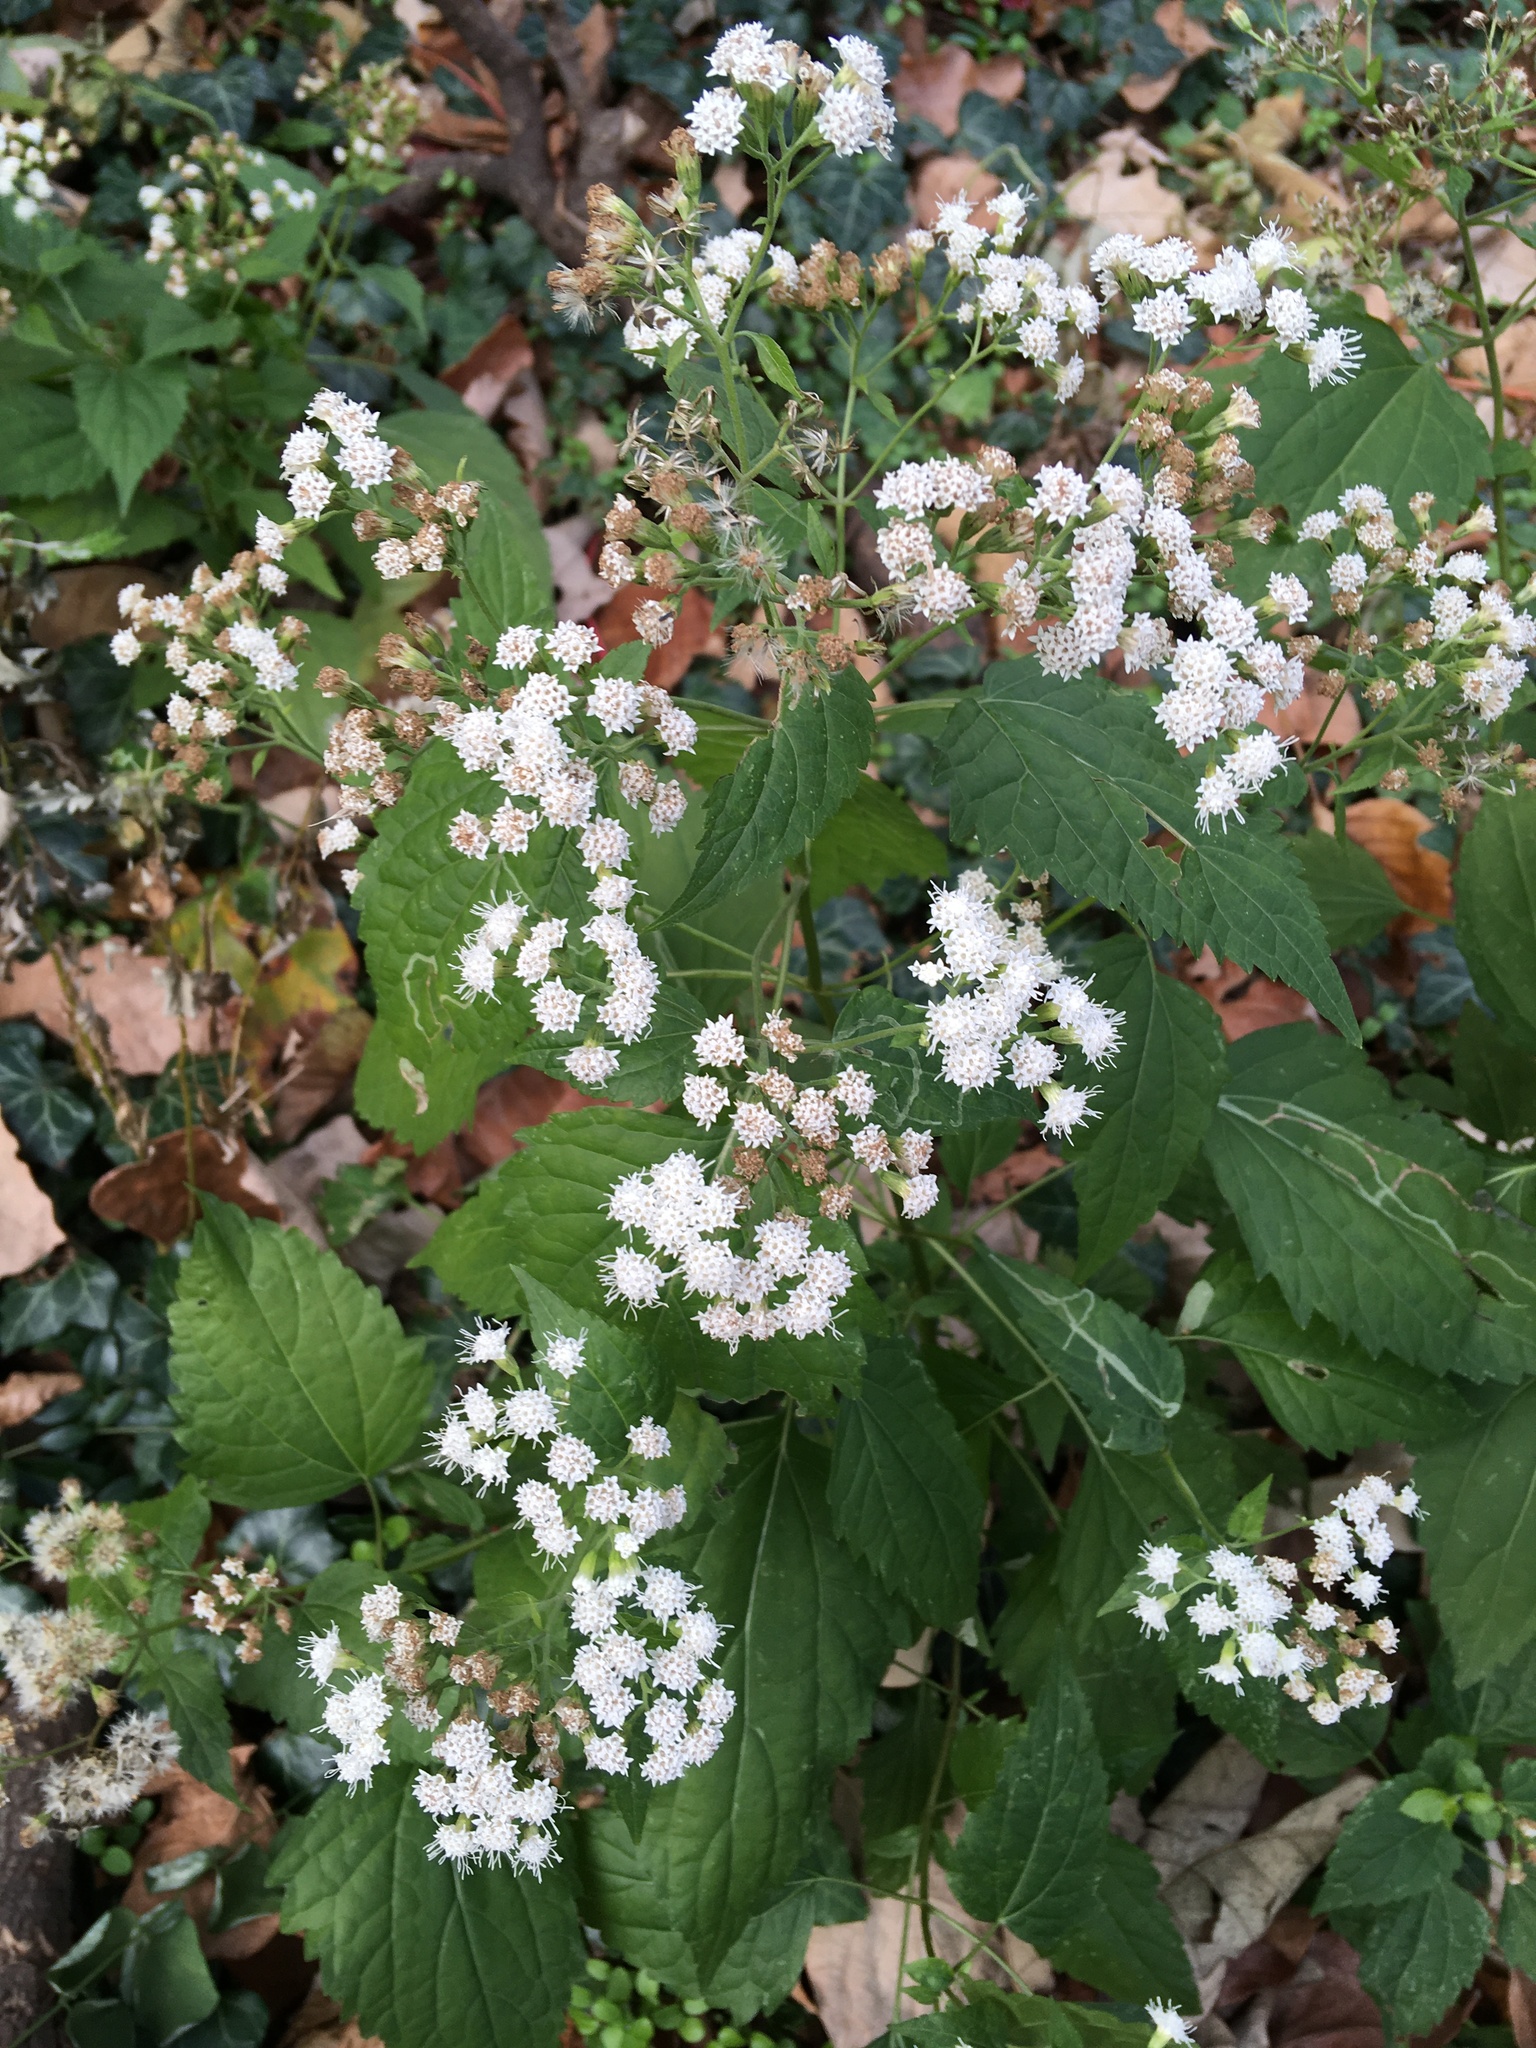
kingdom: Plantae
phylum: Tracheophyta
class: Magnoliopsida
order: Asterales
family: Asteraceae
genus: Ageratina
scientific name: Ageratina altissima
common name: White snakeroot
